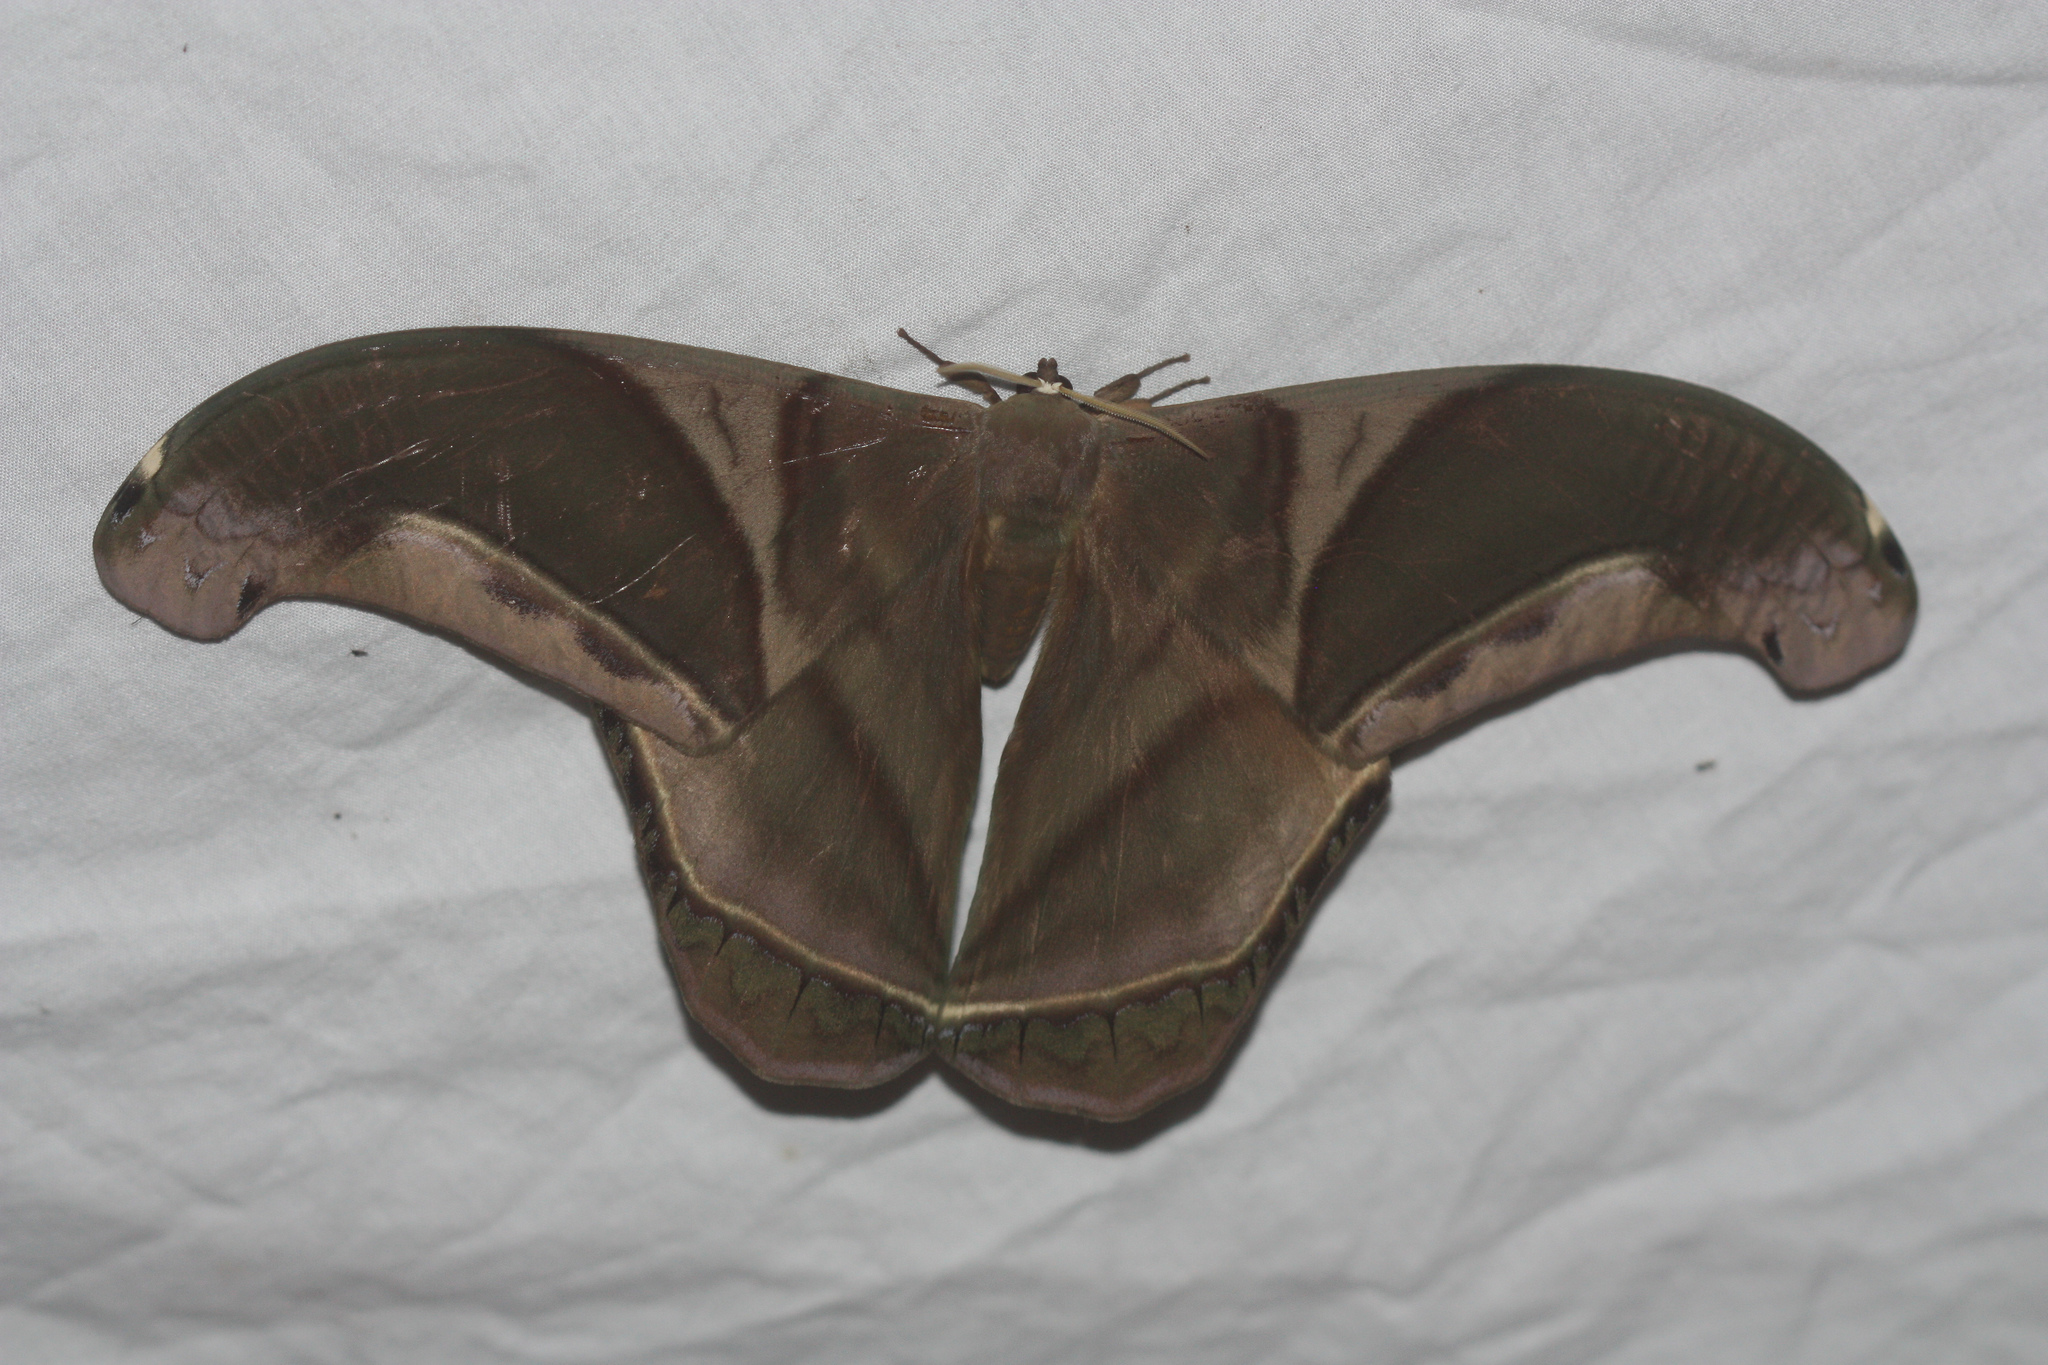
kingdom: Animalia
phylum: Arthropoda
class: Insecta
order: Lepidoptera
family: Saturniidae
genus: Rhescyntis
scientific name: Rhescyntis hippodamia
